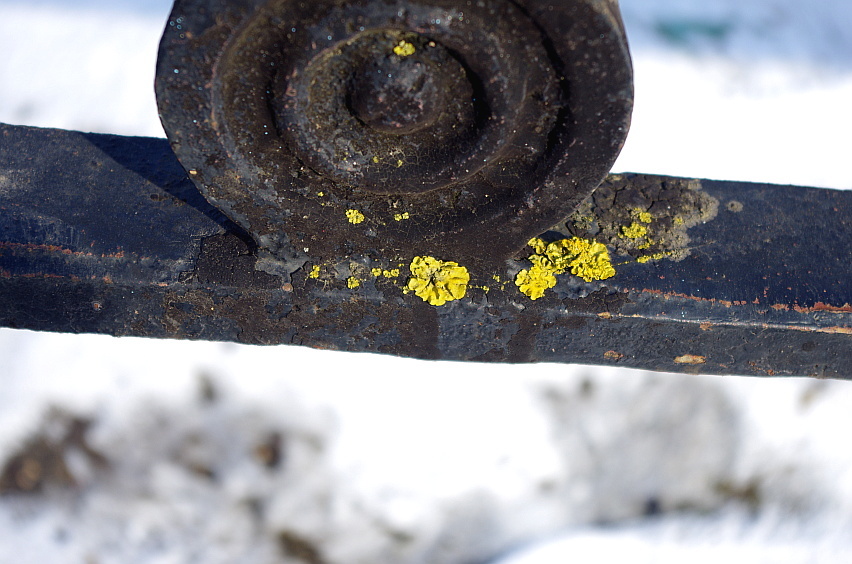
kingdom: Fungi
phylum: Ascomycota
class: Lecanoromycetes
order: Teloschistales
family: Teloschistaceae
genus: Xanthoria
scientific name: Xanthoria parietina
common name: Common orange lichen
